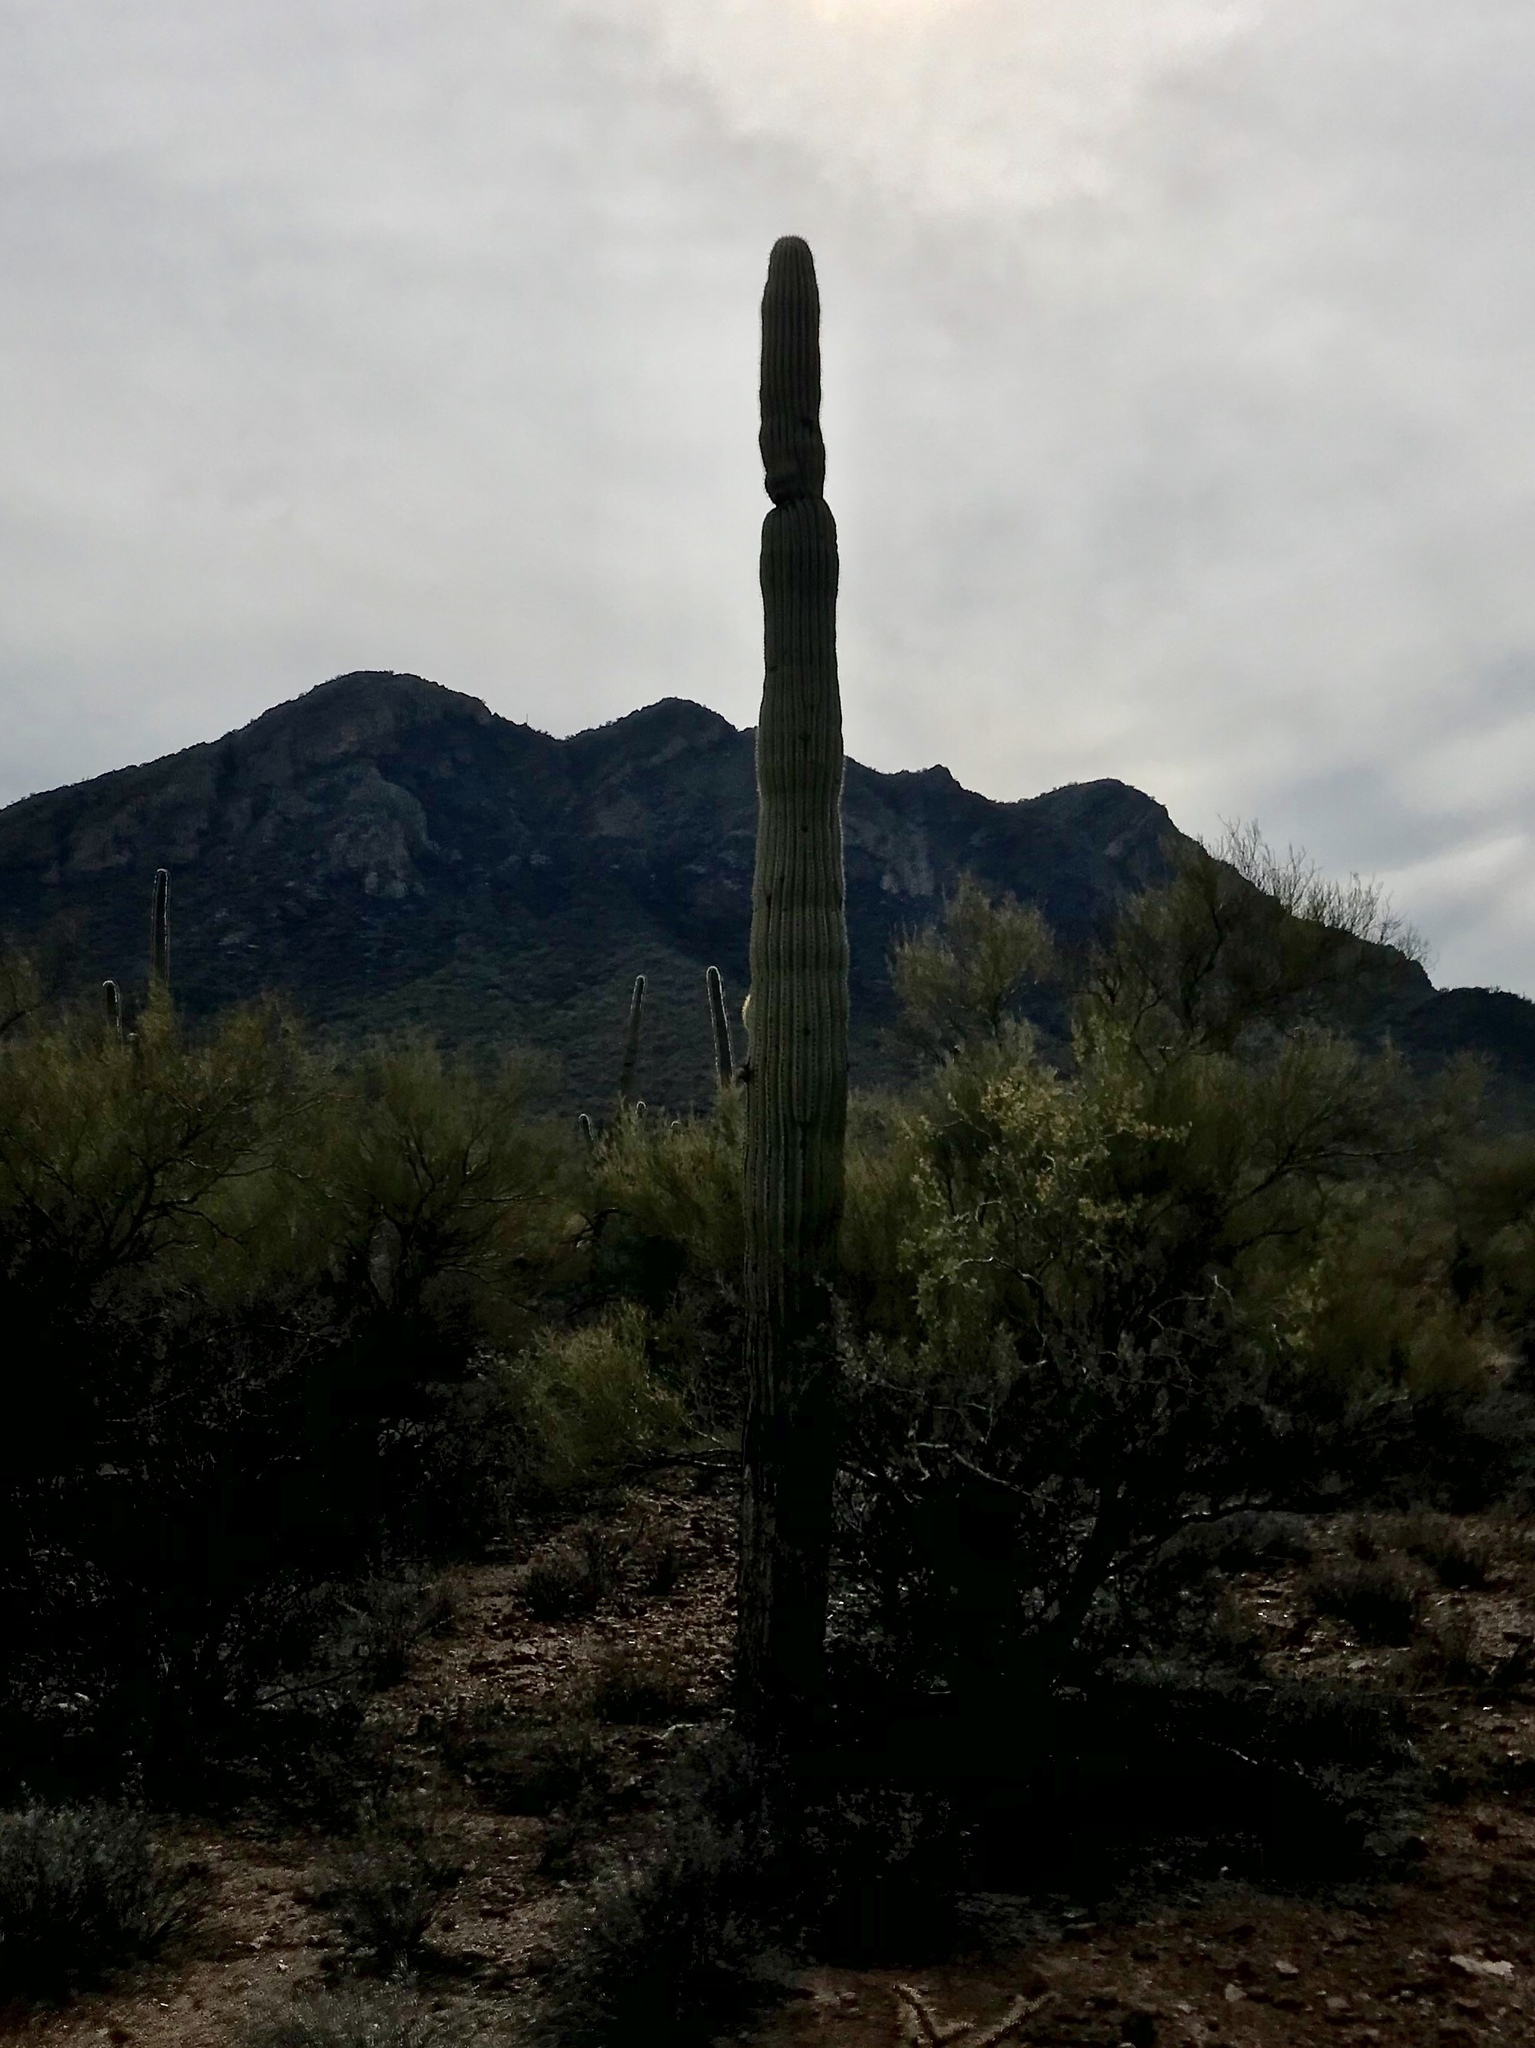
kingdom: Plantae
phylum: Tracheophyta
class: Magnoliopsida
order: Caryophyllales
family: Cactaceae
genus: Carnegiea
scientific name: Carnegiea gigantea
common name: Saguaro
